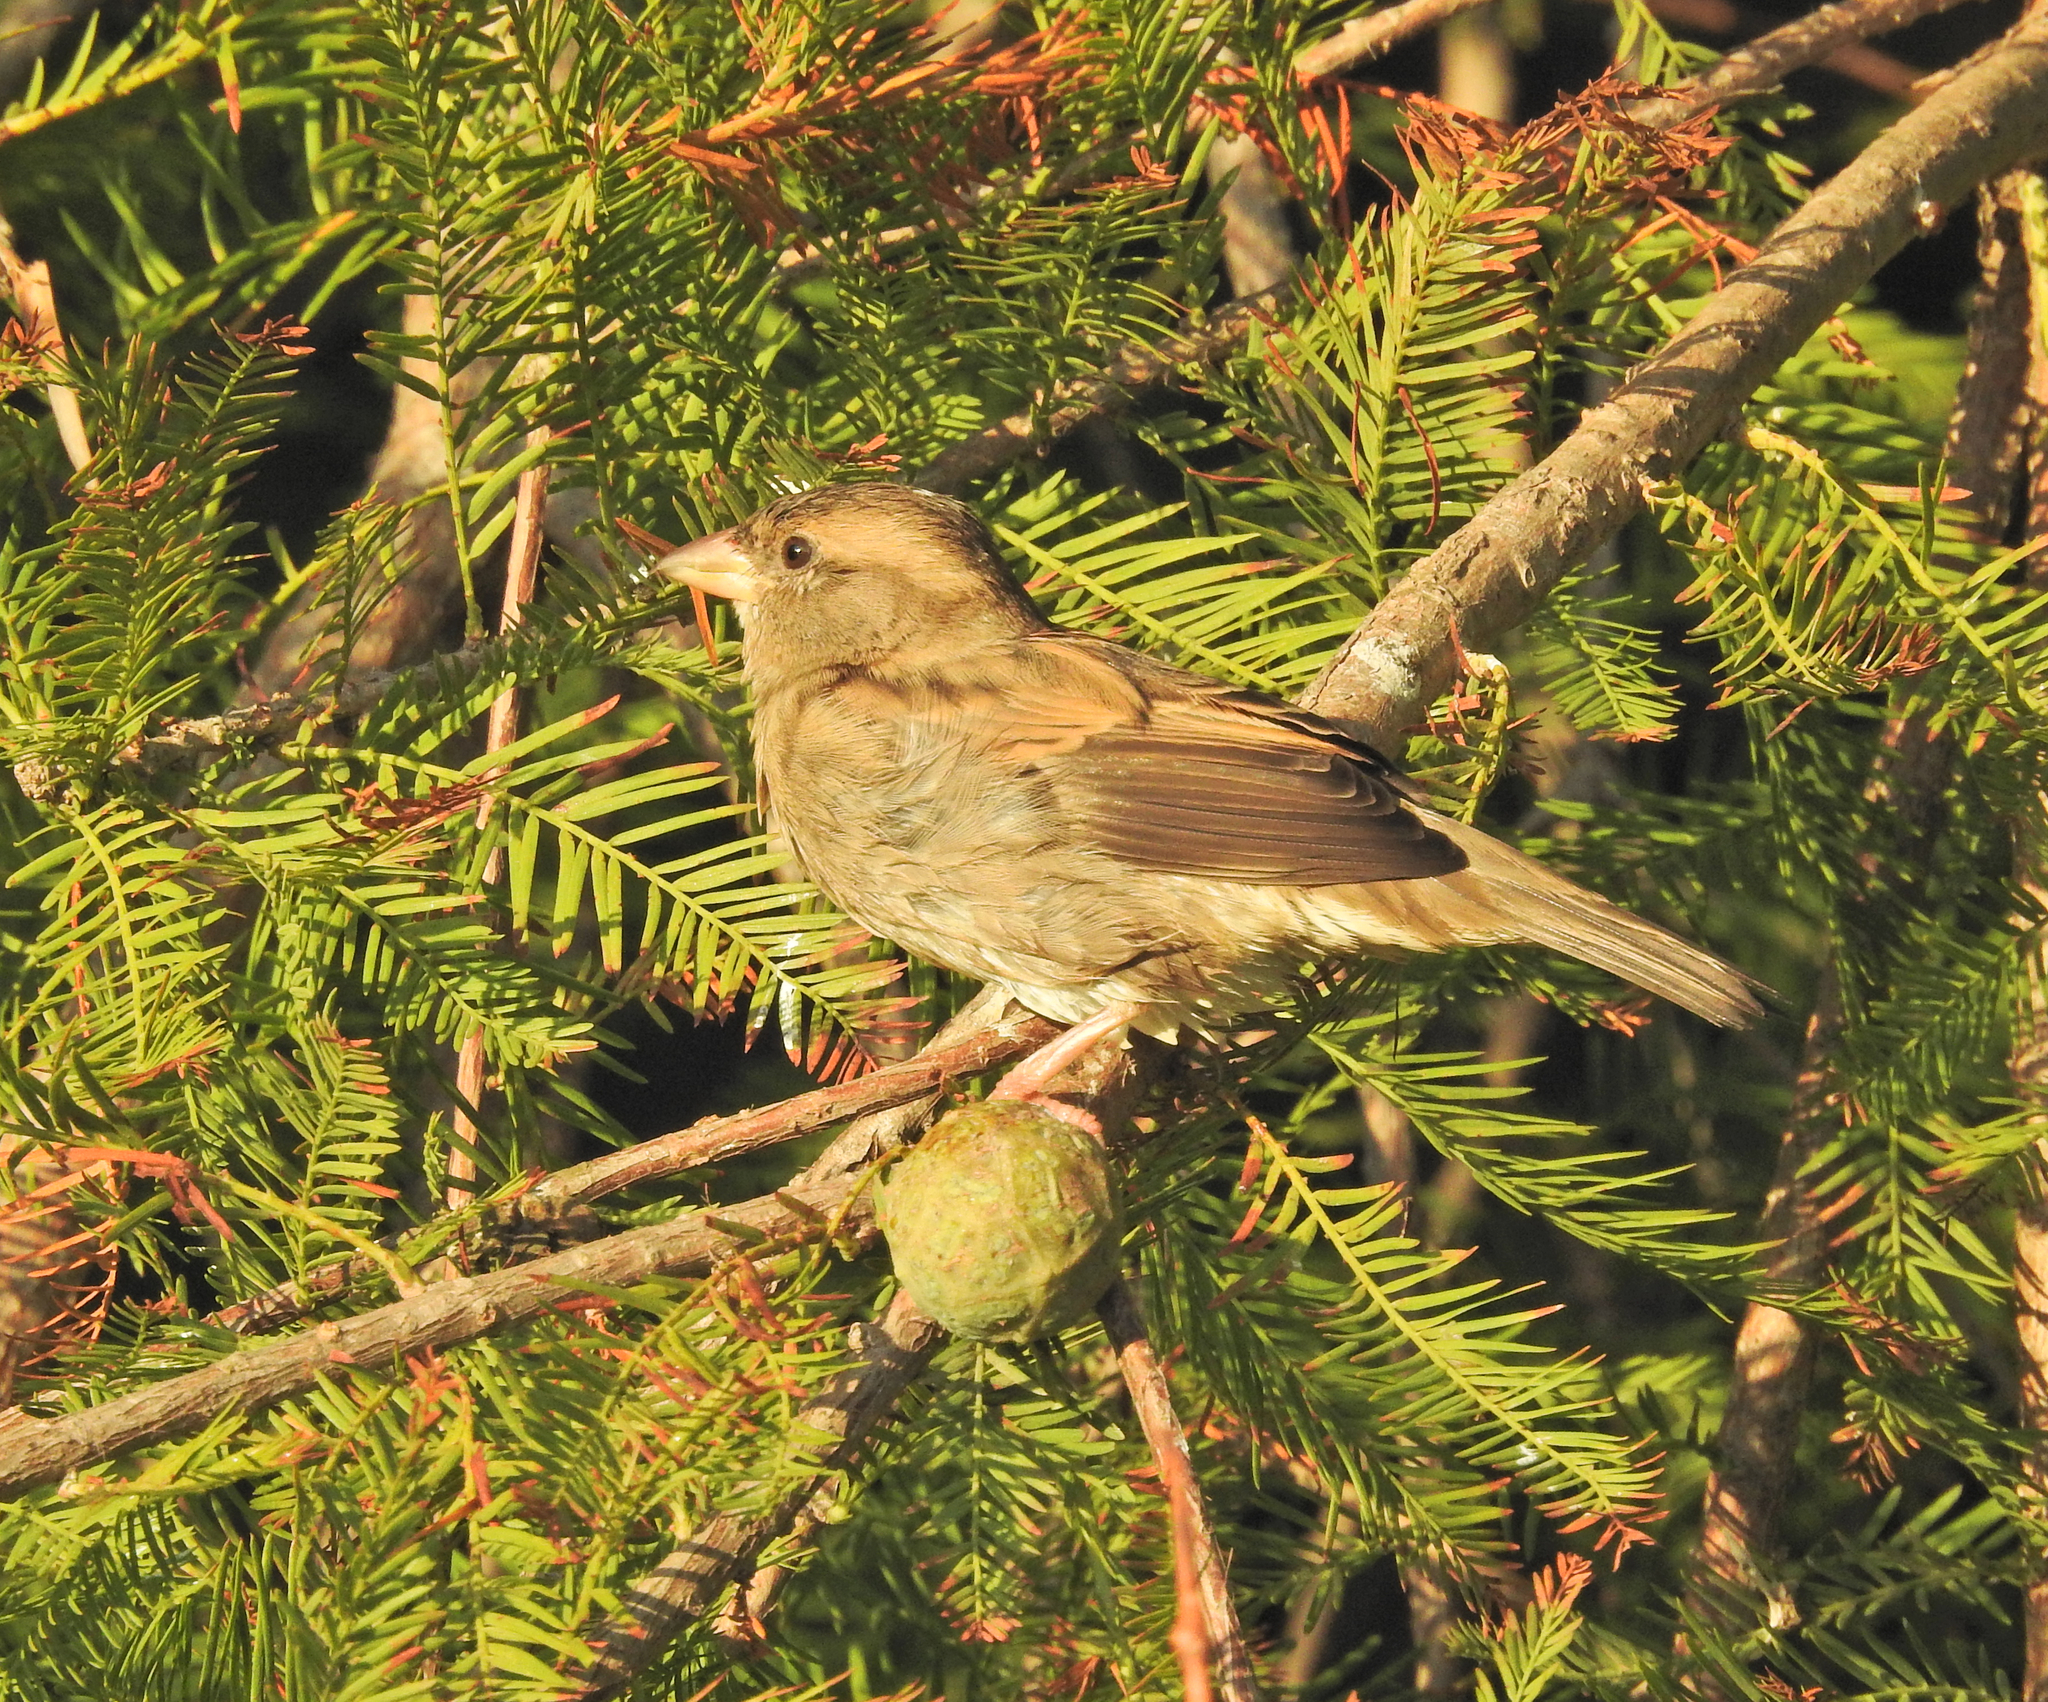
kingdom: Animalia
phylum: Chordata
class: Aves
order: Passeriformes
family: Passeridae
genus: Passer
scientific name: Passer domesticus
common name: House sparrow
